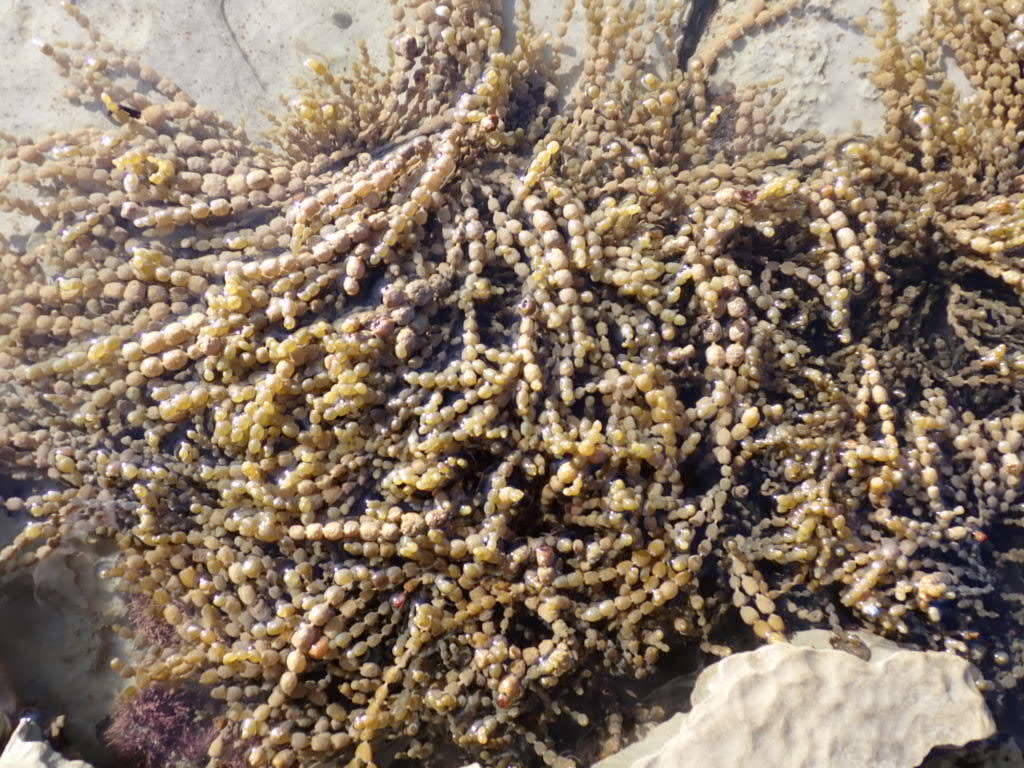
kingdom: Chromista
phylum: Ochrophyta
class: Phaeophyceae
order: Fucales
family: Hormosiraceae
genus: Hormosira
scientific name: Hormosira banksii
